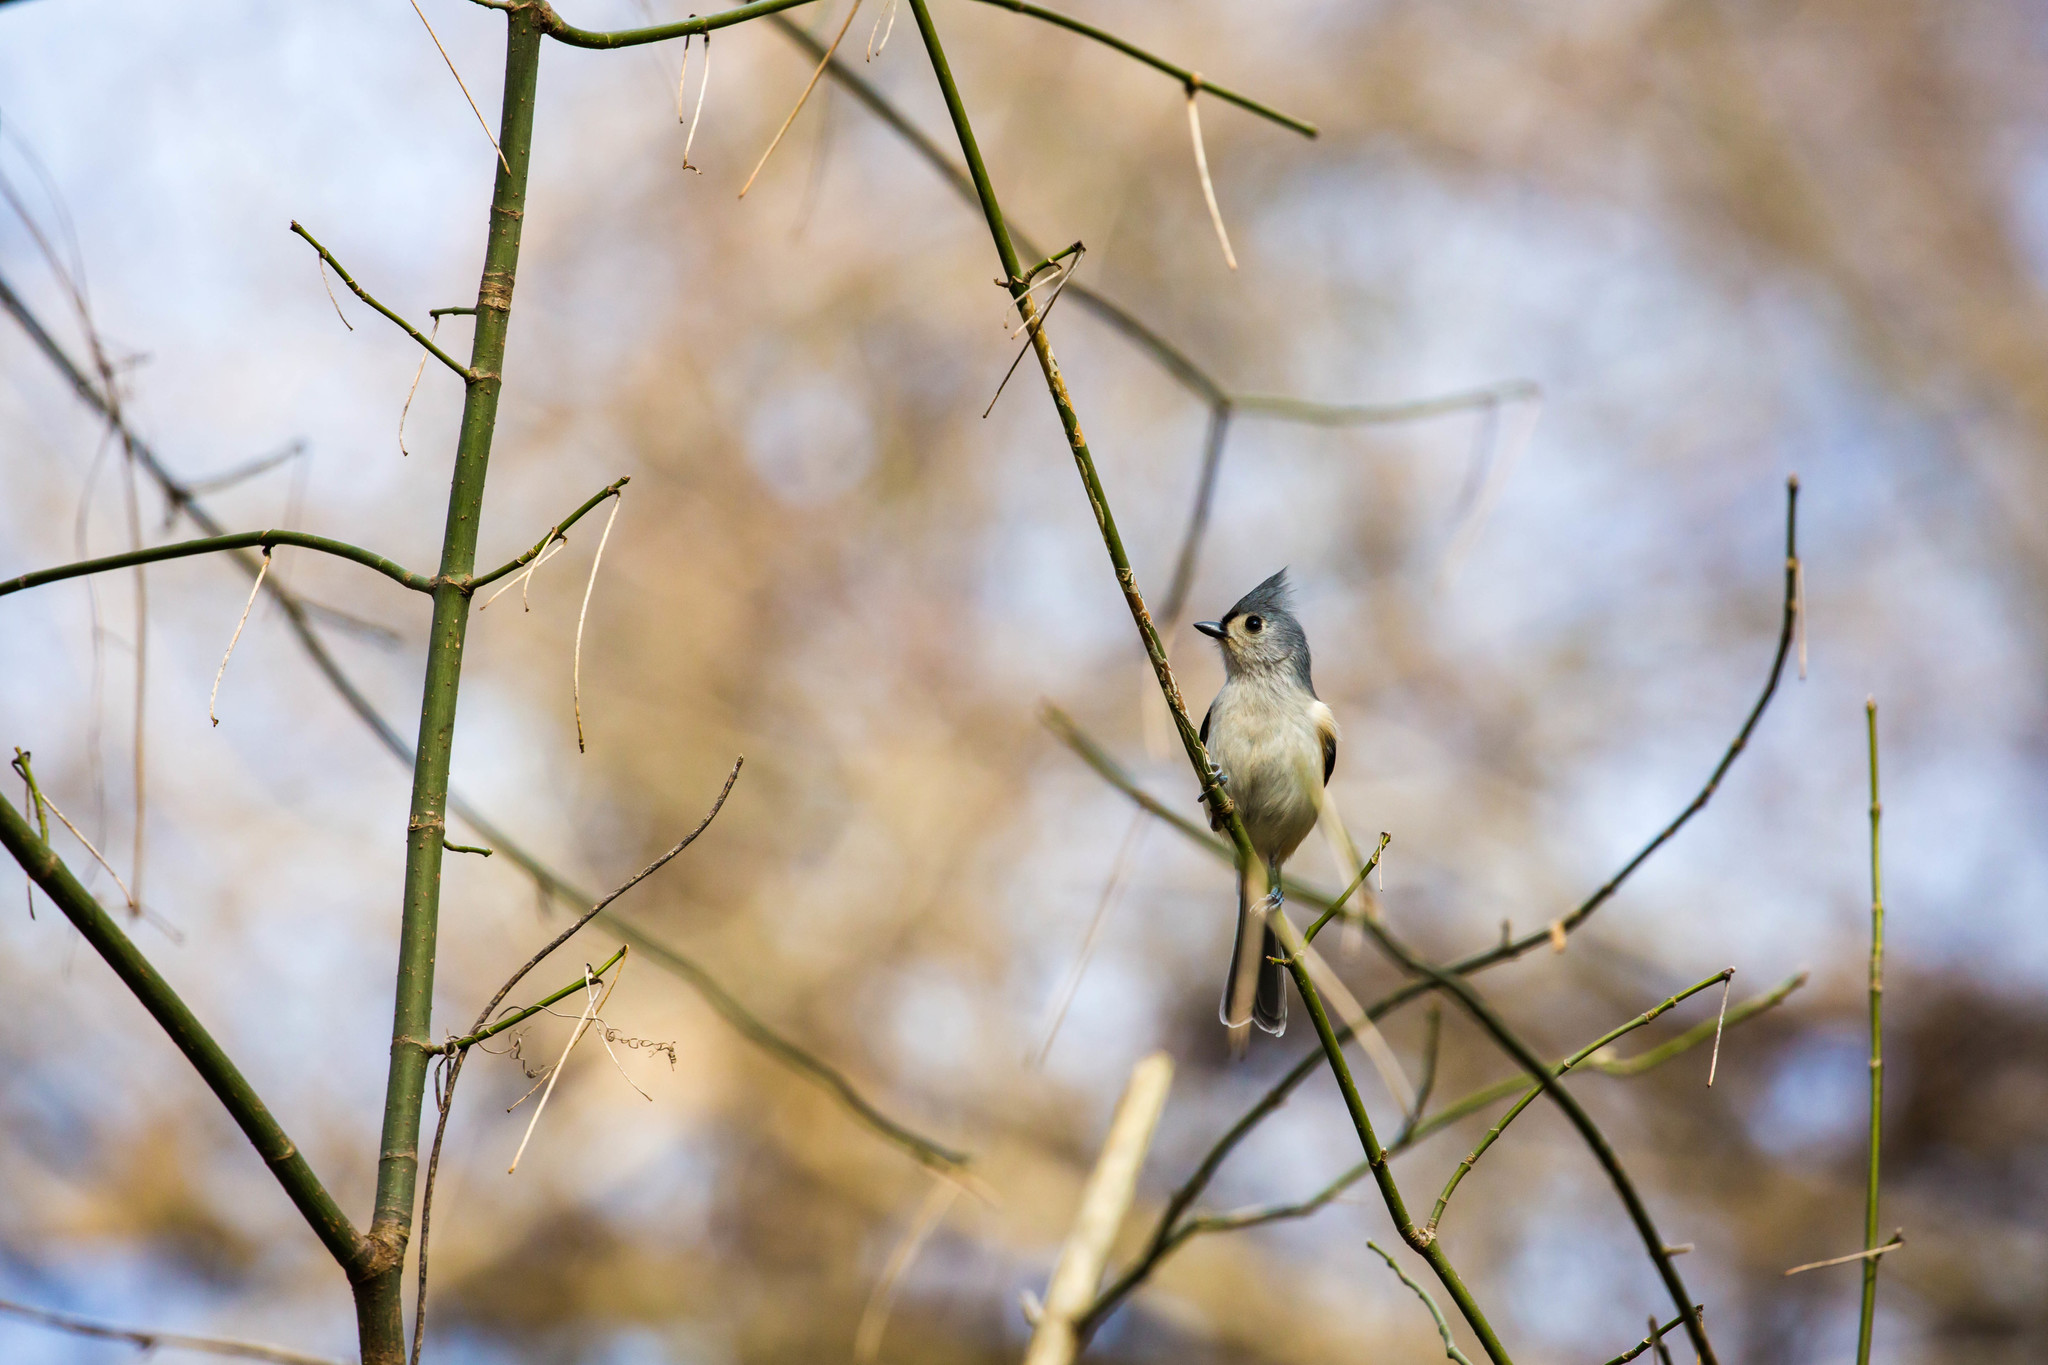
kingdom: Animalia
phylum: Chordata
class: Aves
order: Passeriformes
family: Paridae
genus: Baeolophus
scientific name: Baeolophus bicolor
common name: Tufted titmouse
